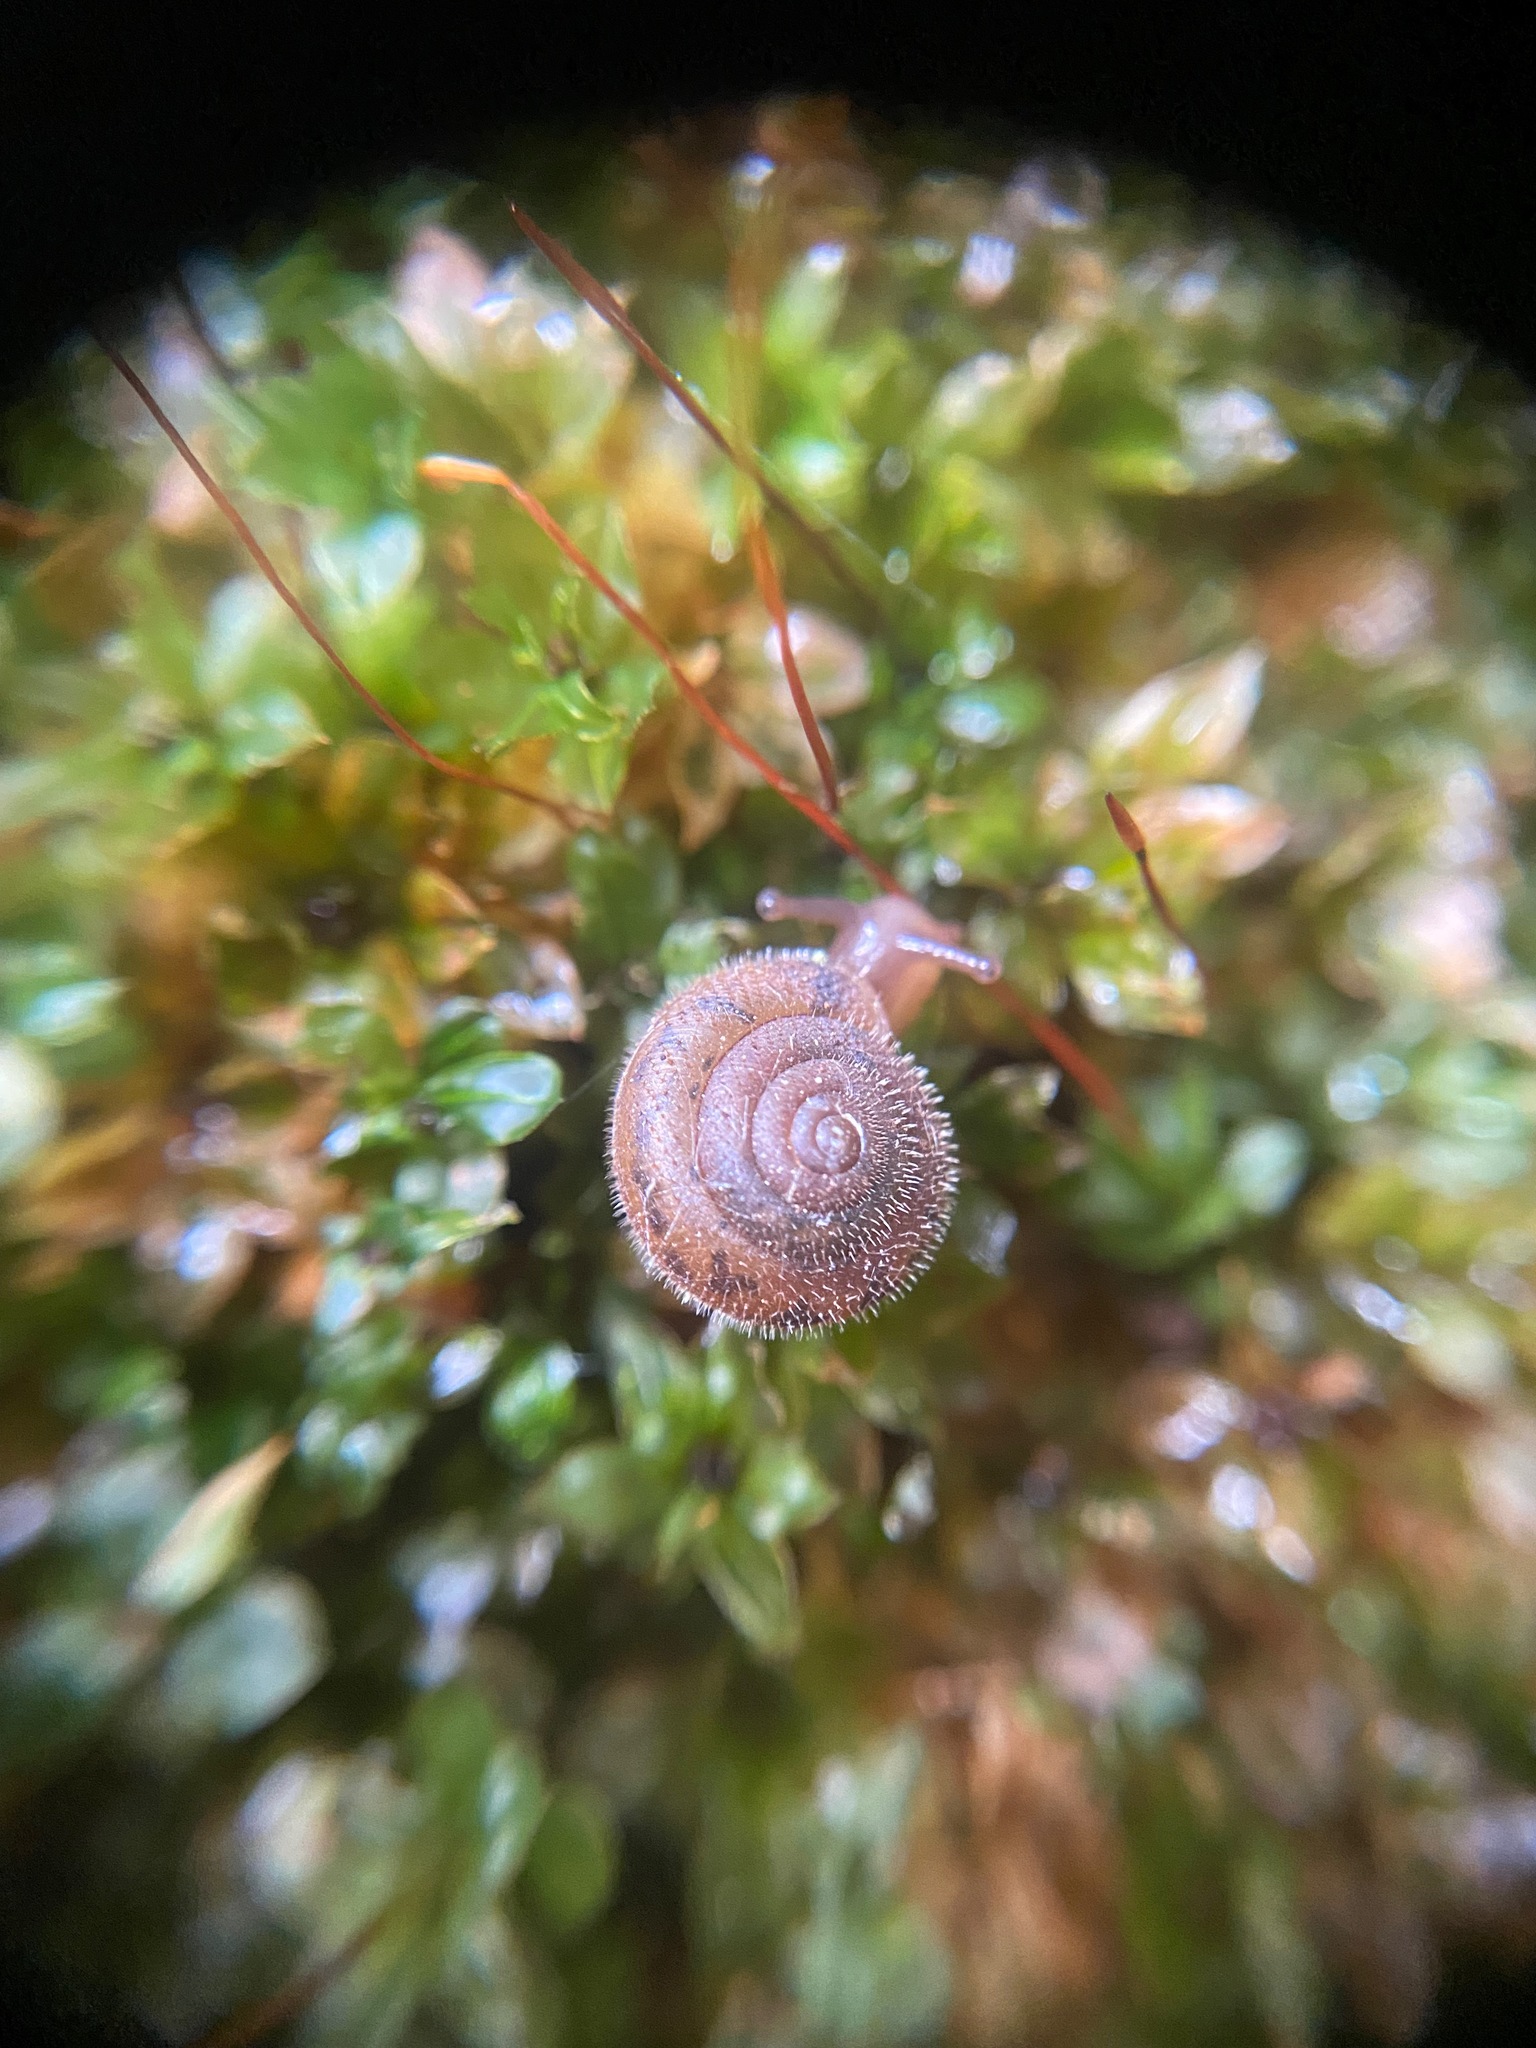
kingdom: Animalia
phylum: Mollusca
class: Gastropoda
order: Stylommatophora
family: Polygyridae
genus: Vespericola
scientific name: Vespericola columbianus
